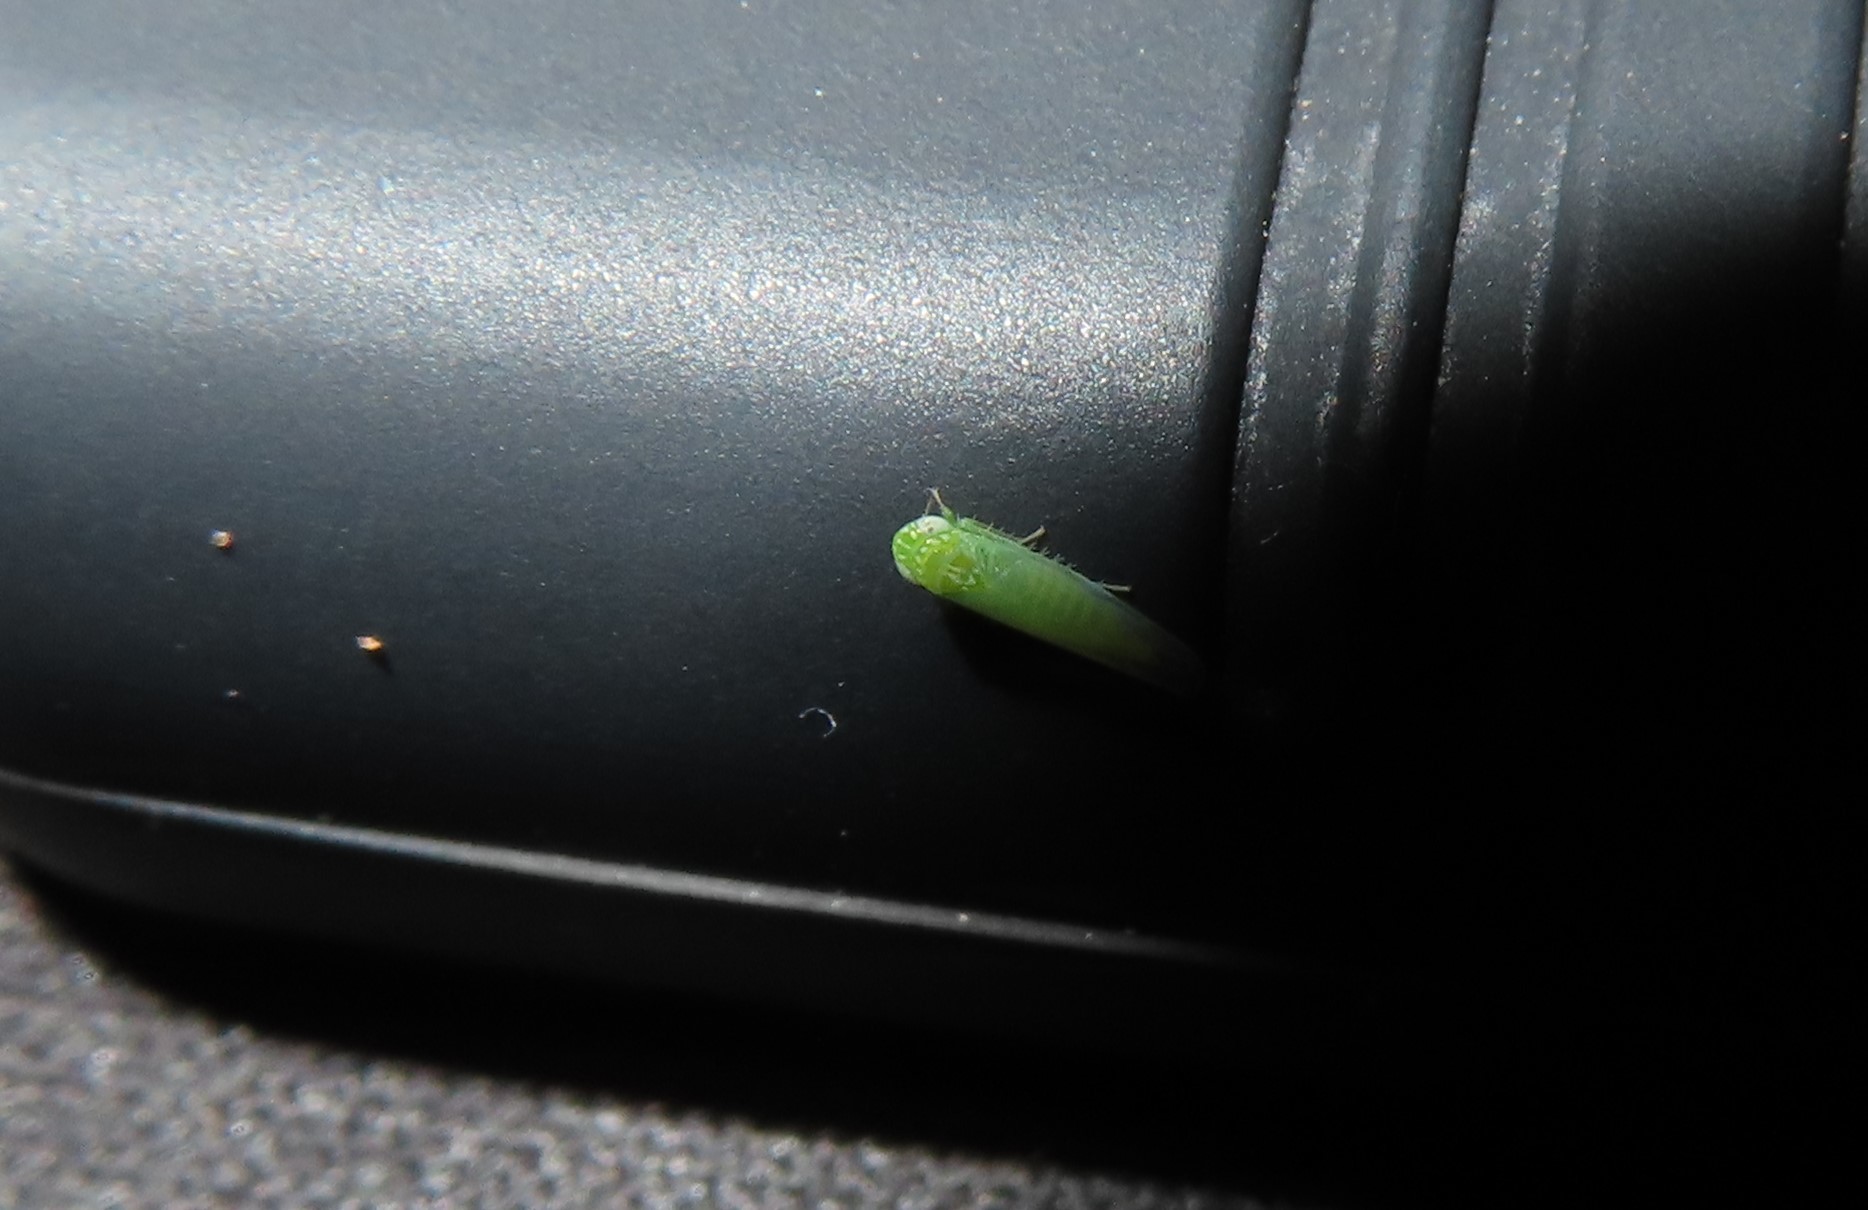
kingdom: Animalia
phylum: Arthropoda
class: Insecta
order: Hemiptera
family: Cicadellidae
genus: Empoasca
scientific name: Empoasca fabae
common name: Potato leafhopper
